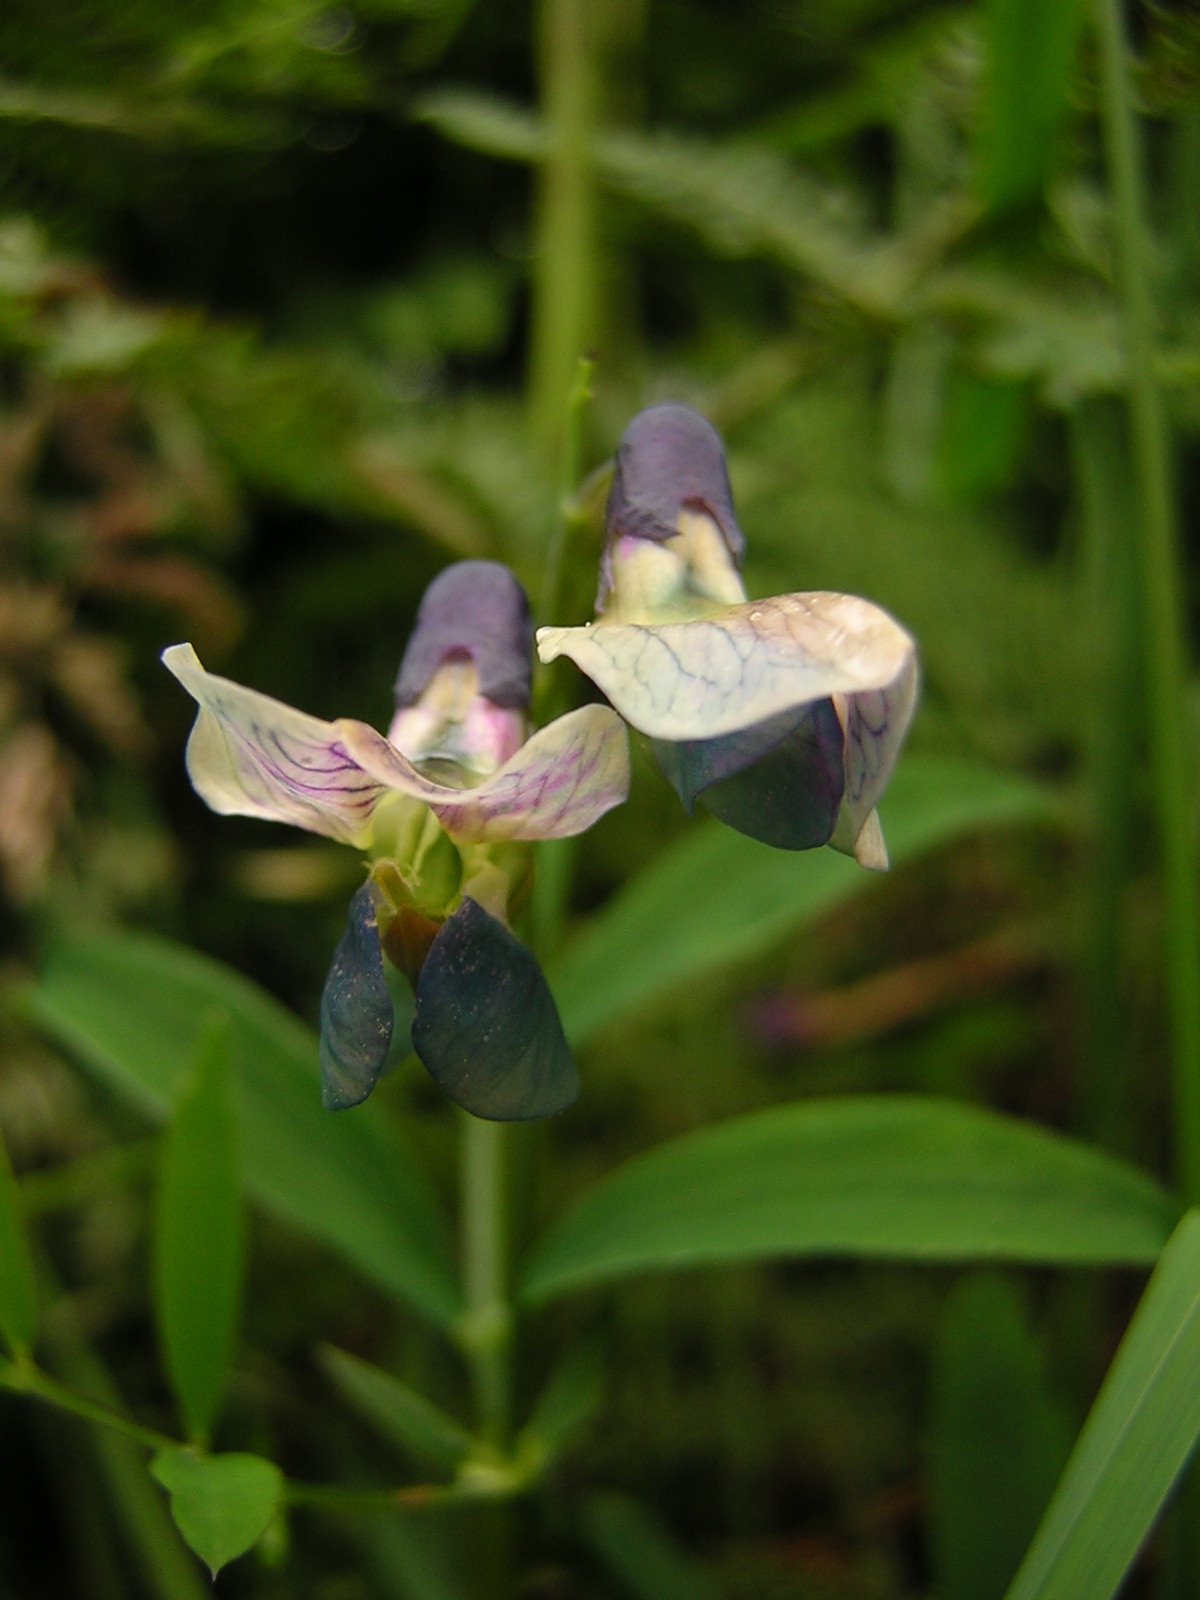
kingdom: Plantae
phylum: Tracheophyta
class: Magnoliopsida
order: Fabales
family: Fabaceae
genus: Lathyrus
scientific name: Lathyrus linifolius
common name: Bitter-vetch
